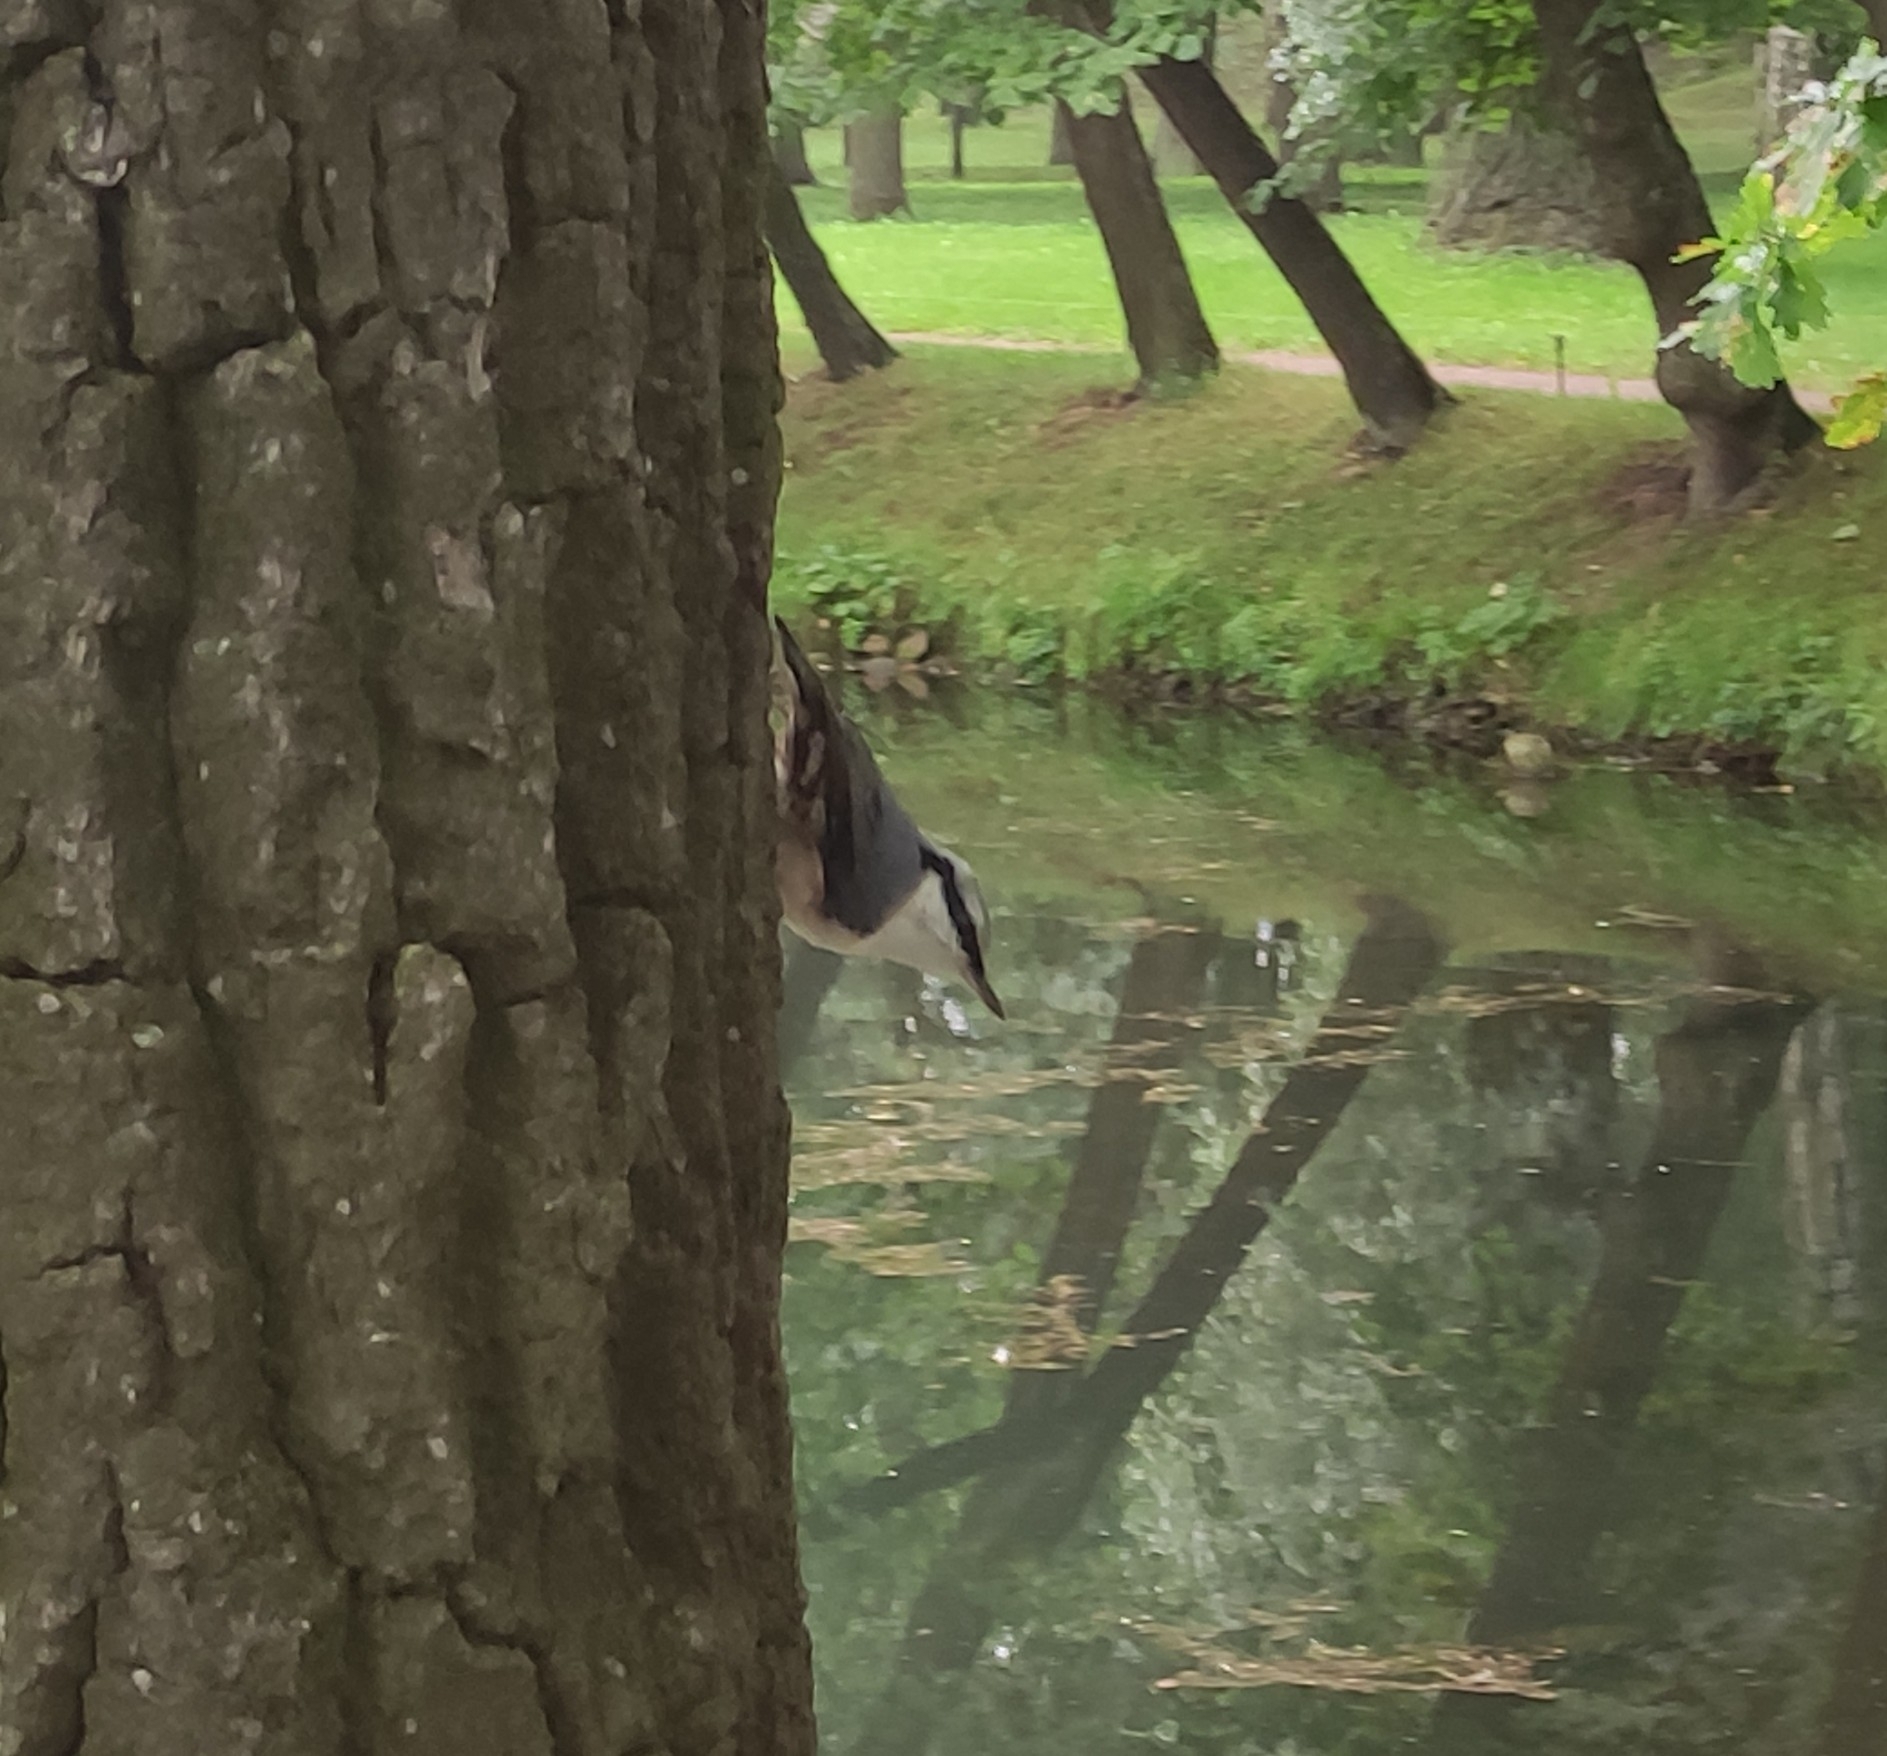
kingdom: Animalia
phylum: Chordata
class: Aves
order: Passeriformes
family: Sittidae
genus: Sitta
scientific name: Sitta europaea
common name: Eurasian nuthatch
